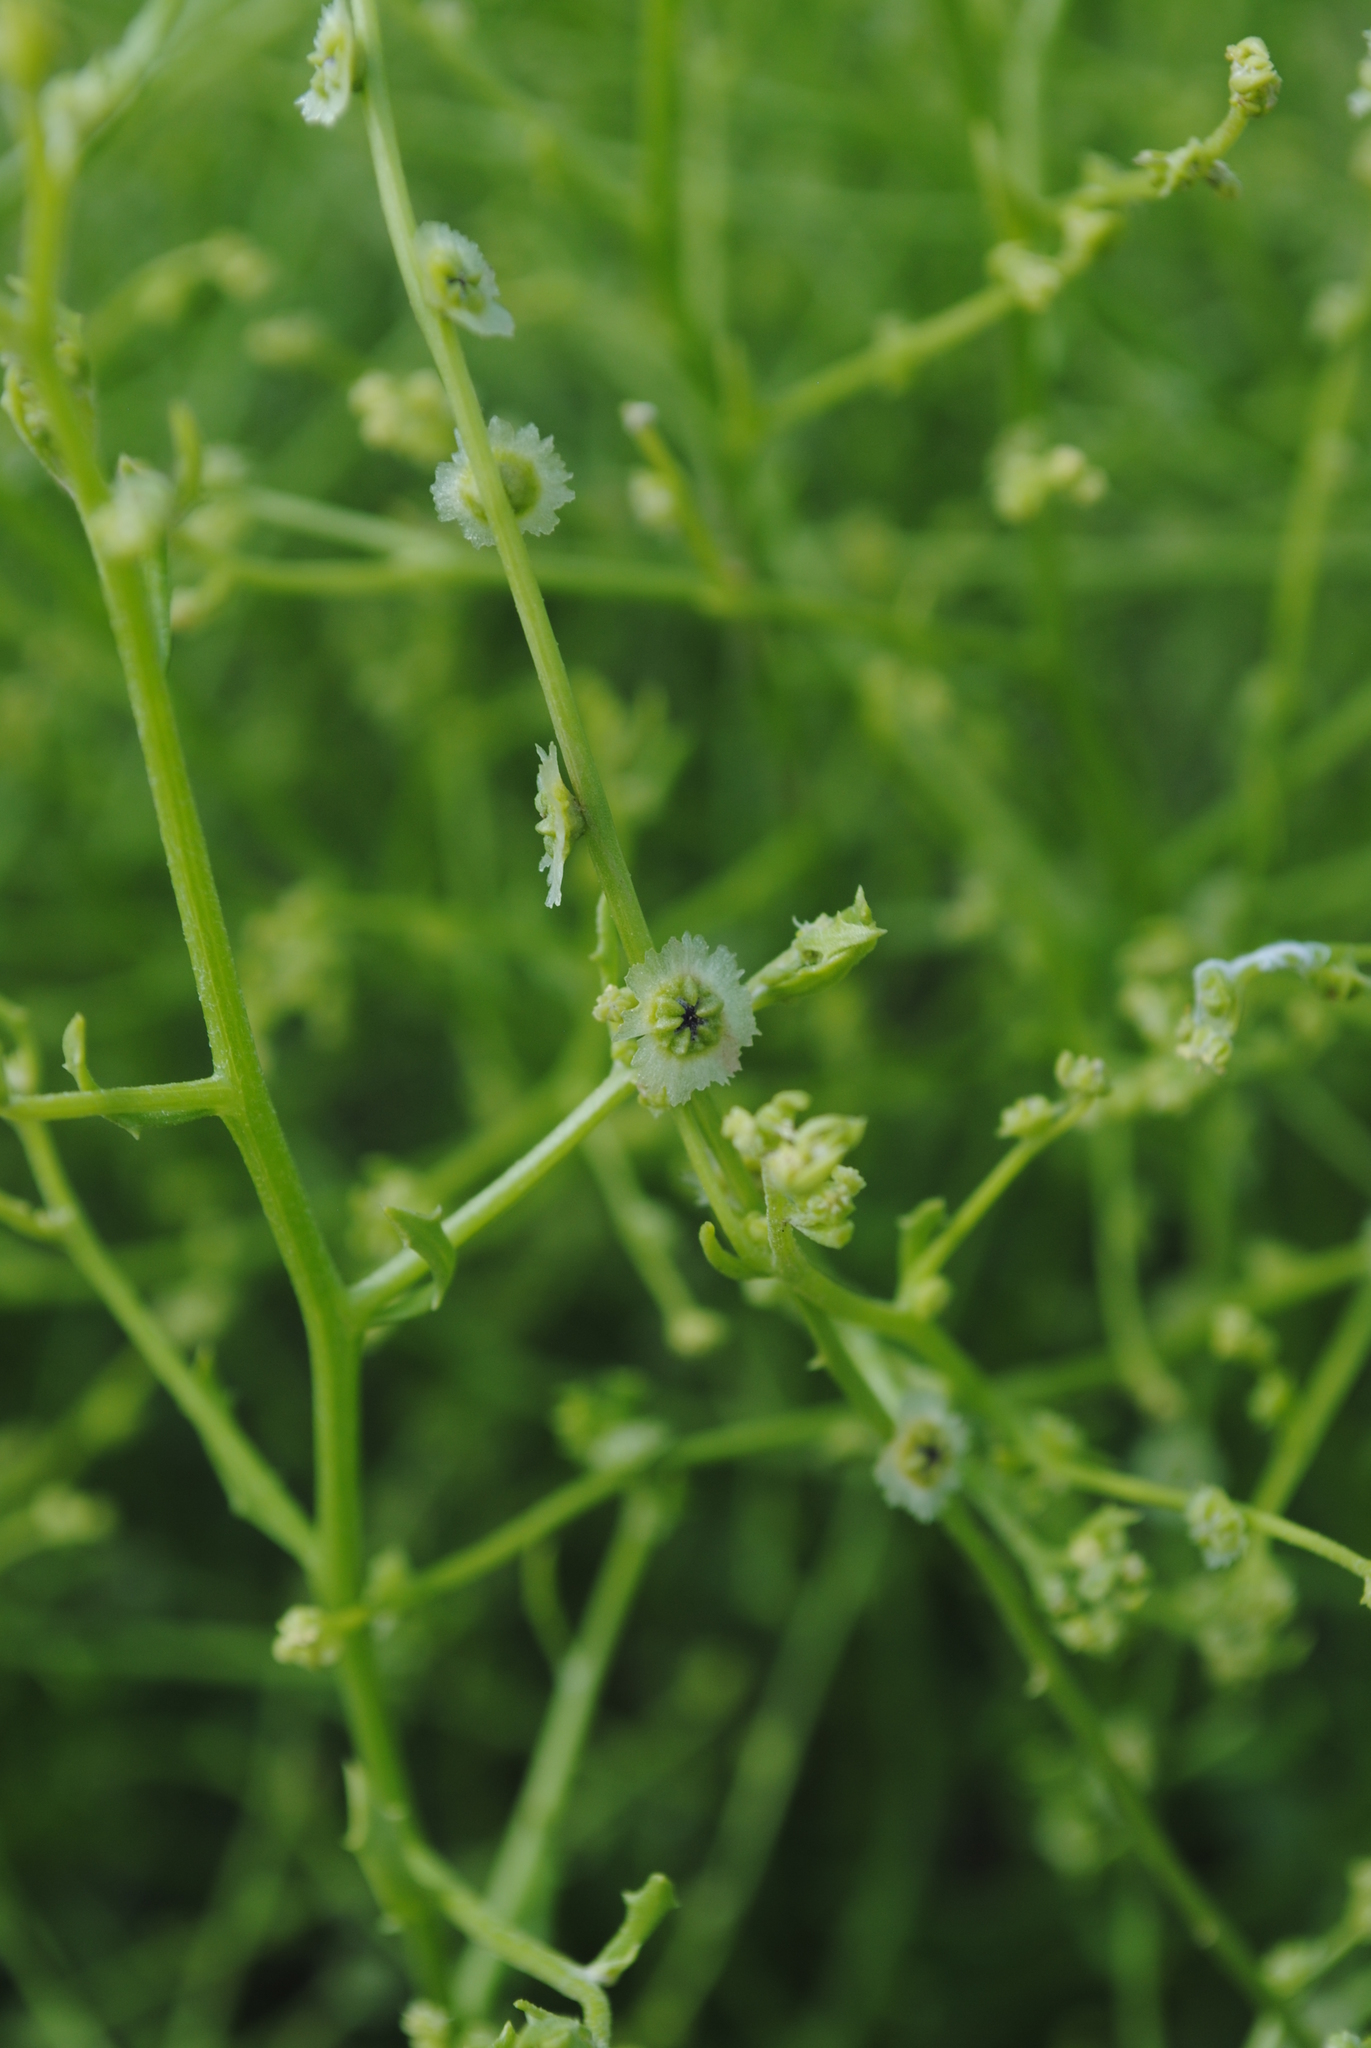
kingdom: Plantae
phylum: Tracheophyta
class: Magnoliopsida
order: Caryophyllales
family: Amaranthaceae
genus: Dysphania
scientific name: Dysphania atriplicifolia
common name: Plains tumbleweed
